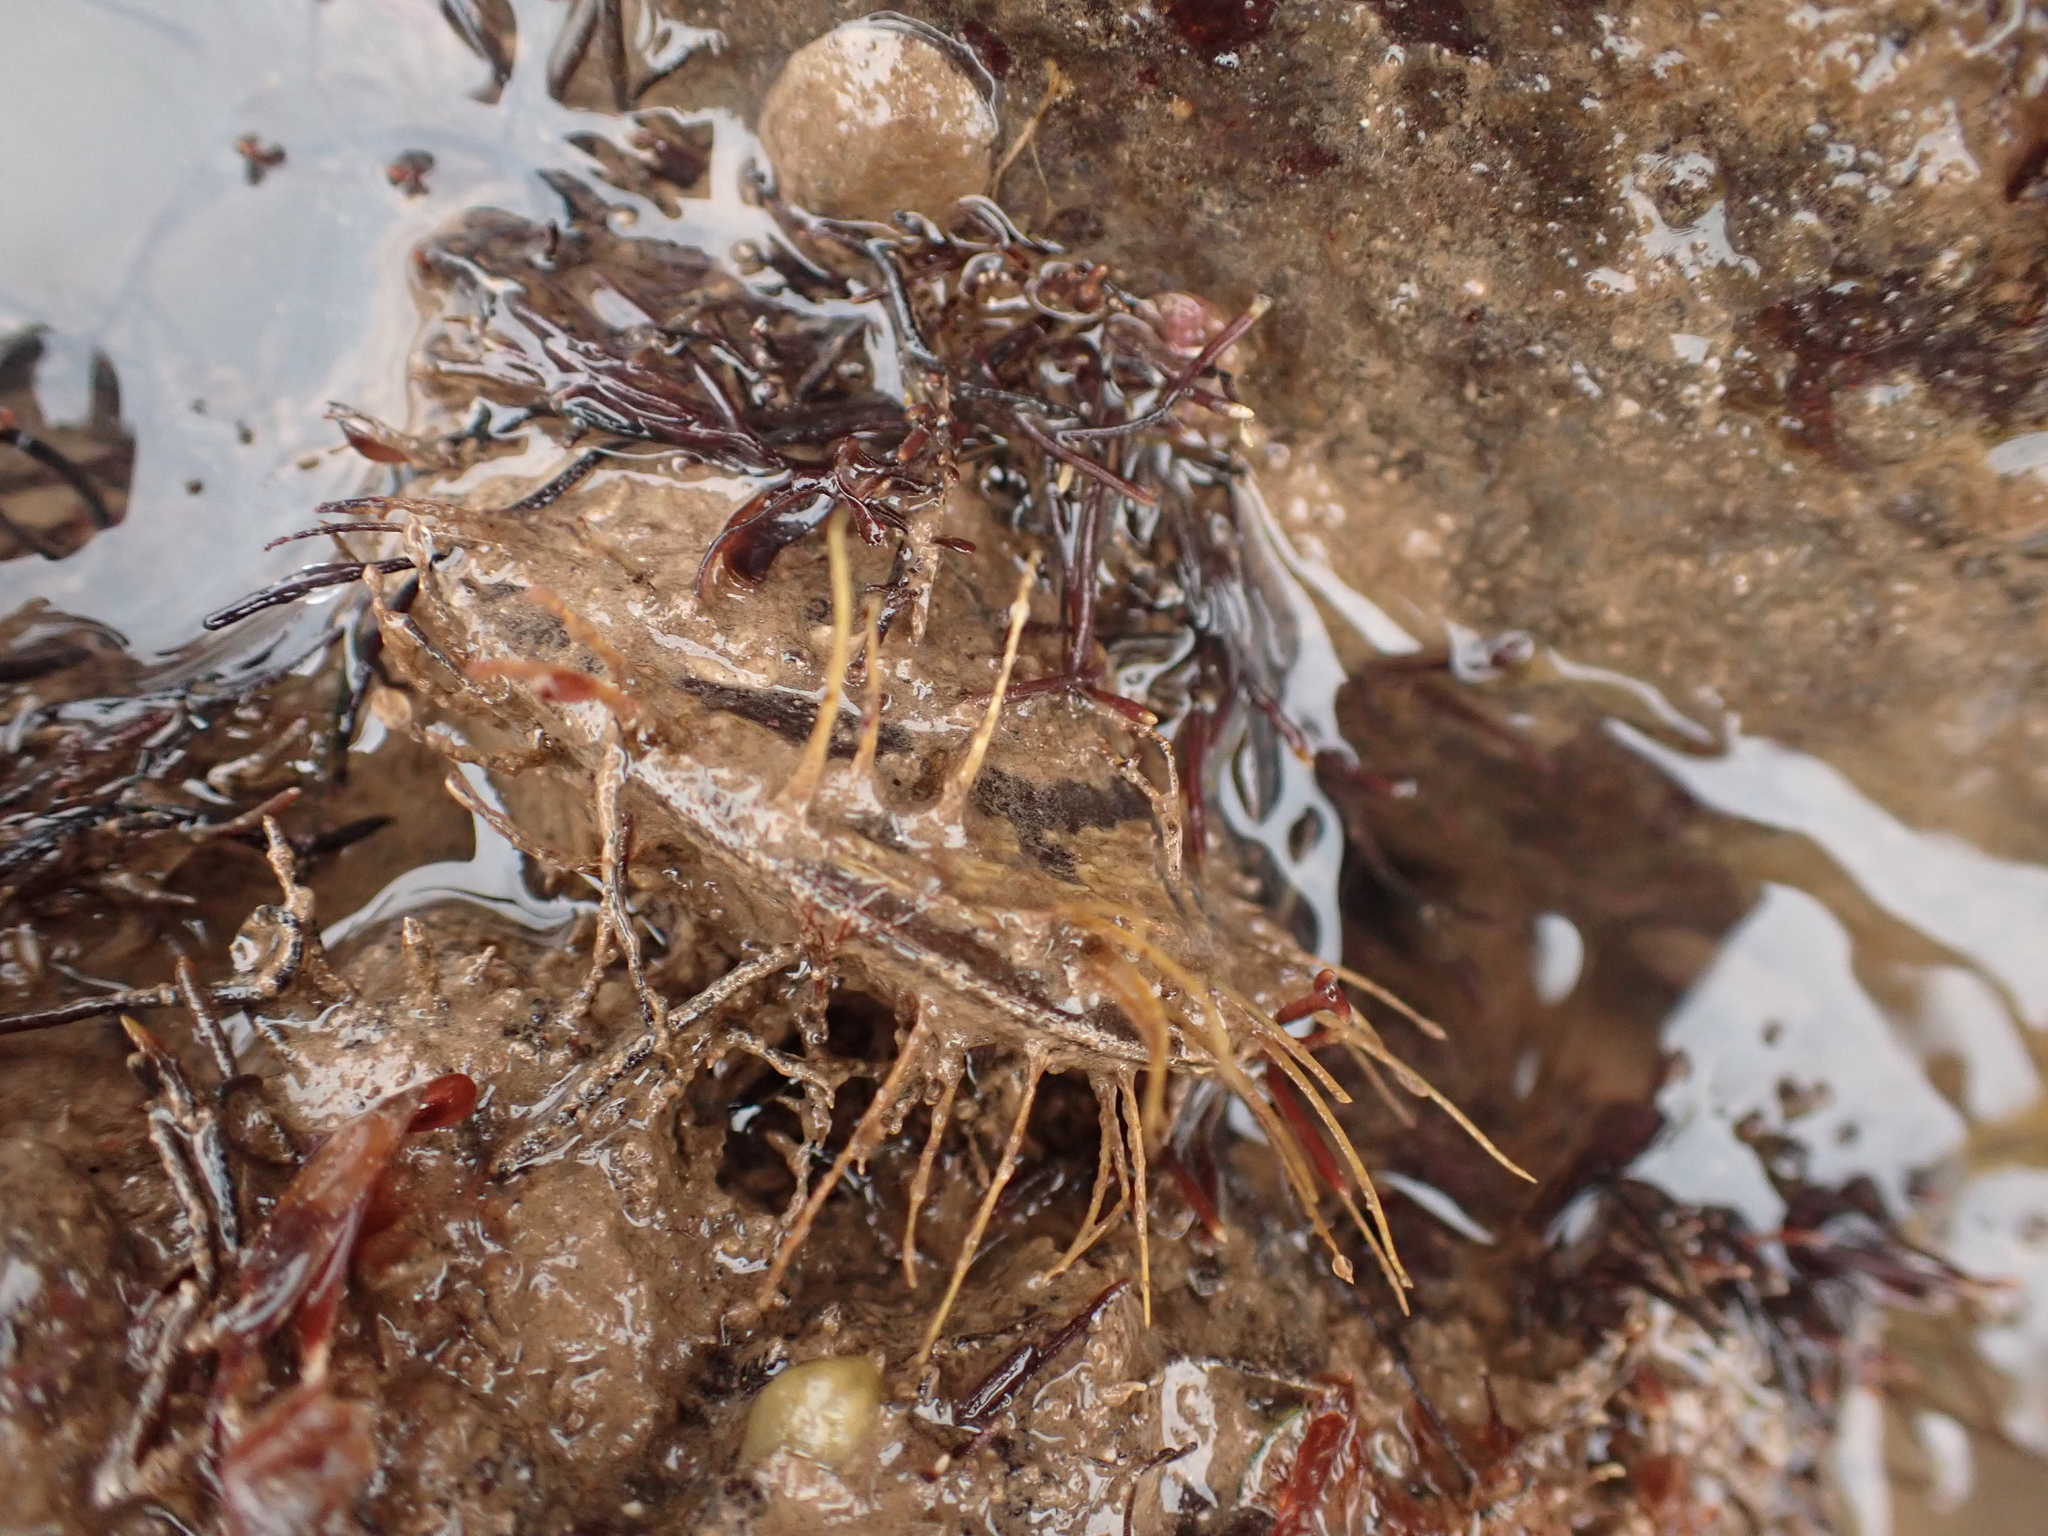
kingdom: Animalia
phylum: Mollusca
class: Bivalvia
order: Mytilida
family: Mytilidae
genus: Modiolus
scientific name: Modiolus modiolus
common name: Horse-mussel
